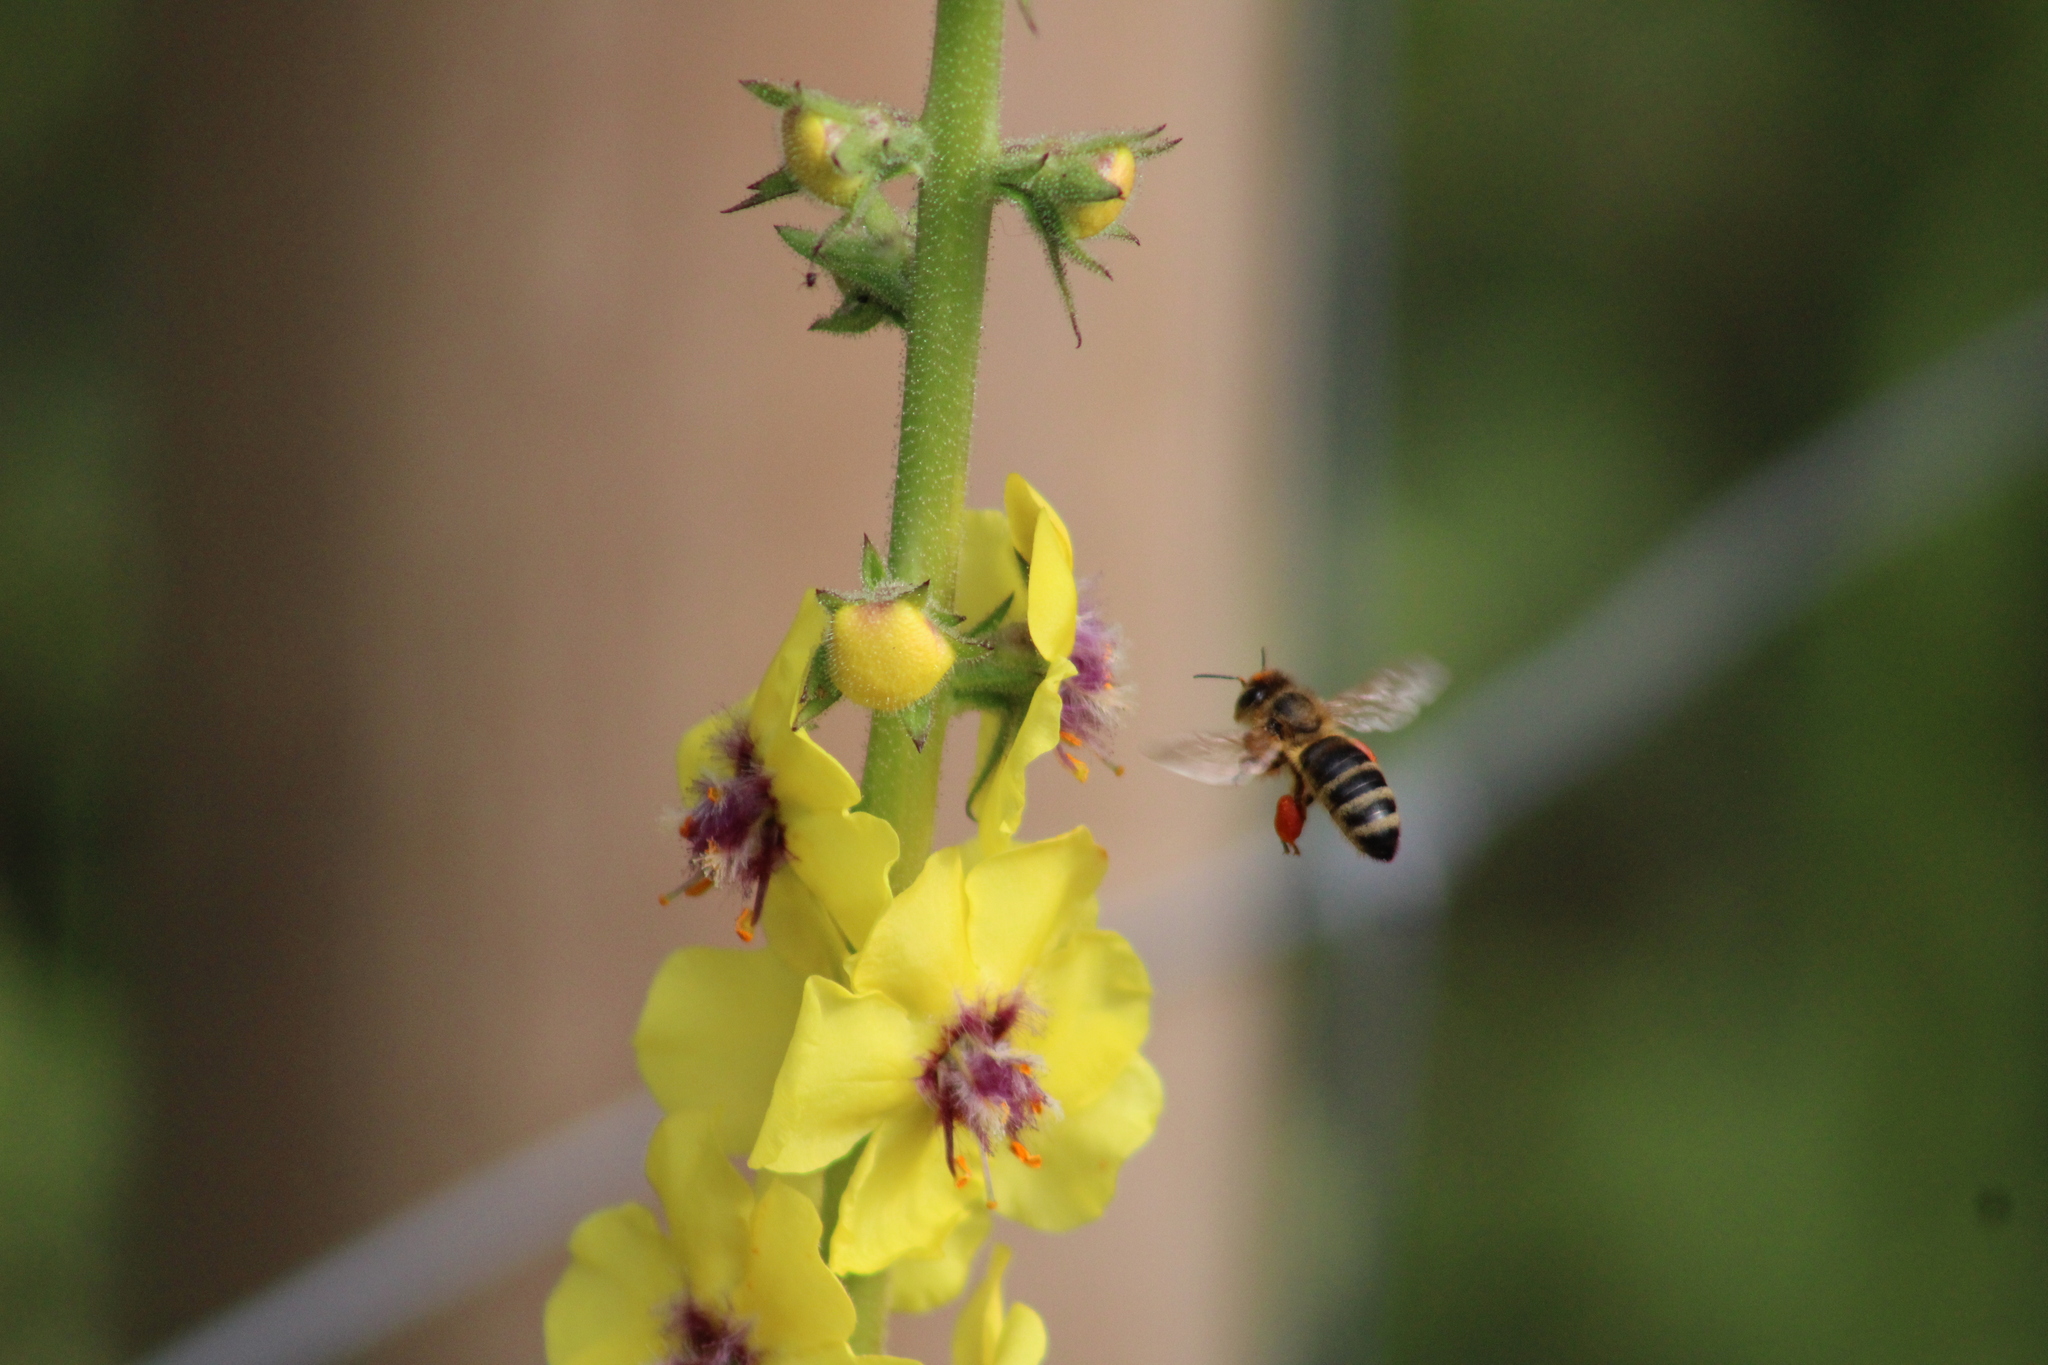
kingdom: Animalia
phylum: Arthropoda
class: Insecta
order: Hymenoptera
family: Apidae
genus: Apis
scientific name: Apis mellifera
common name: Honey bee
